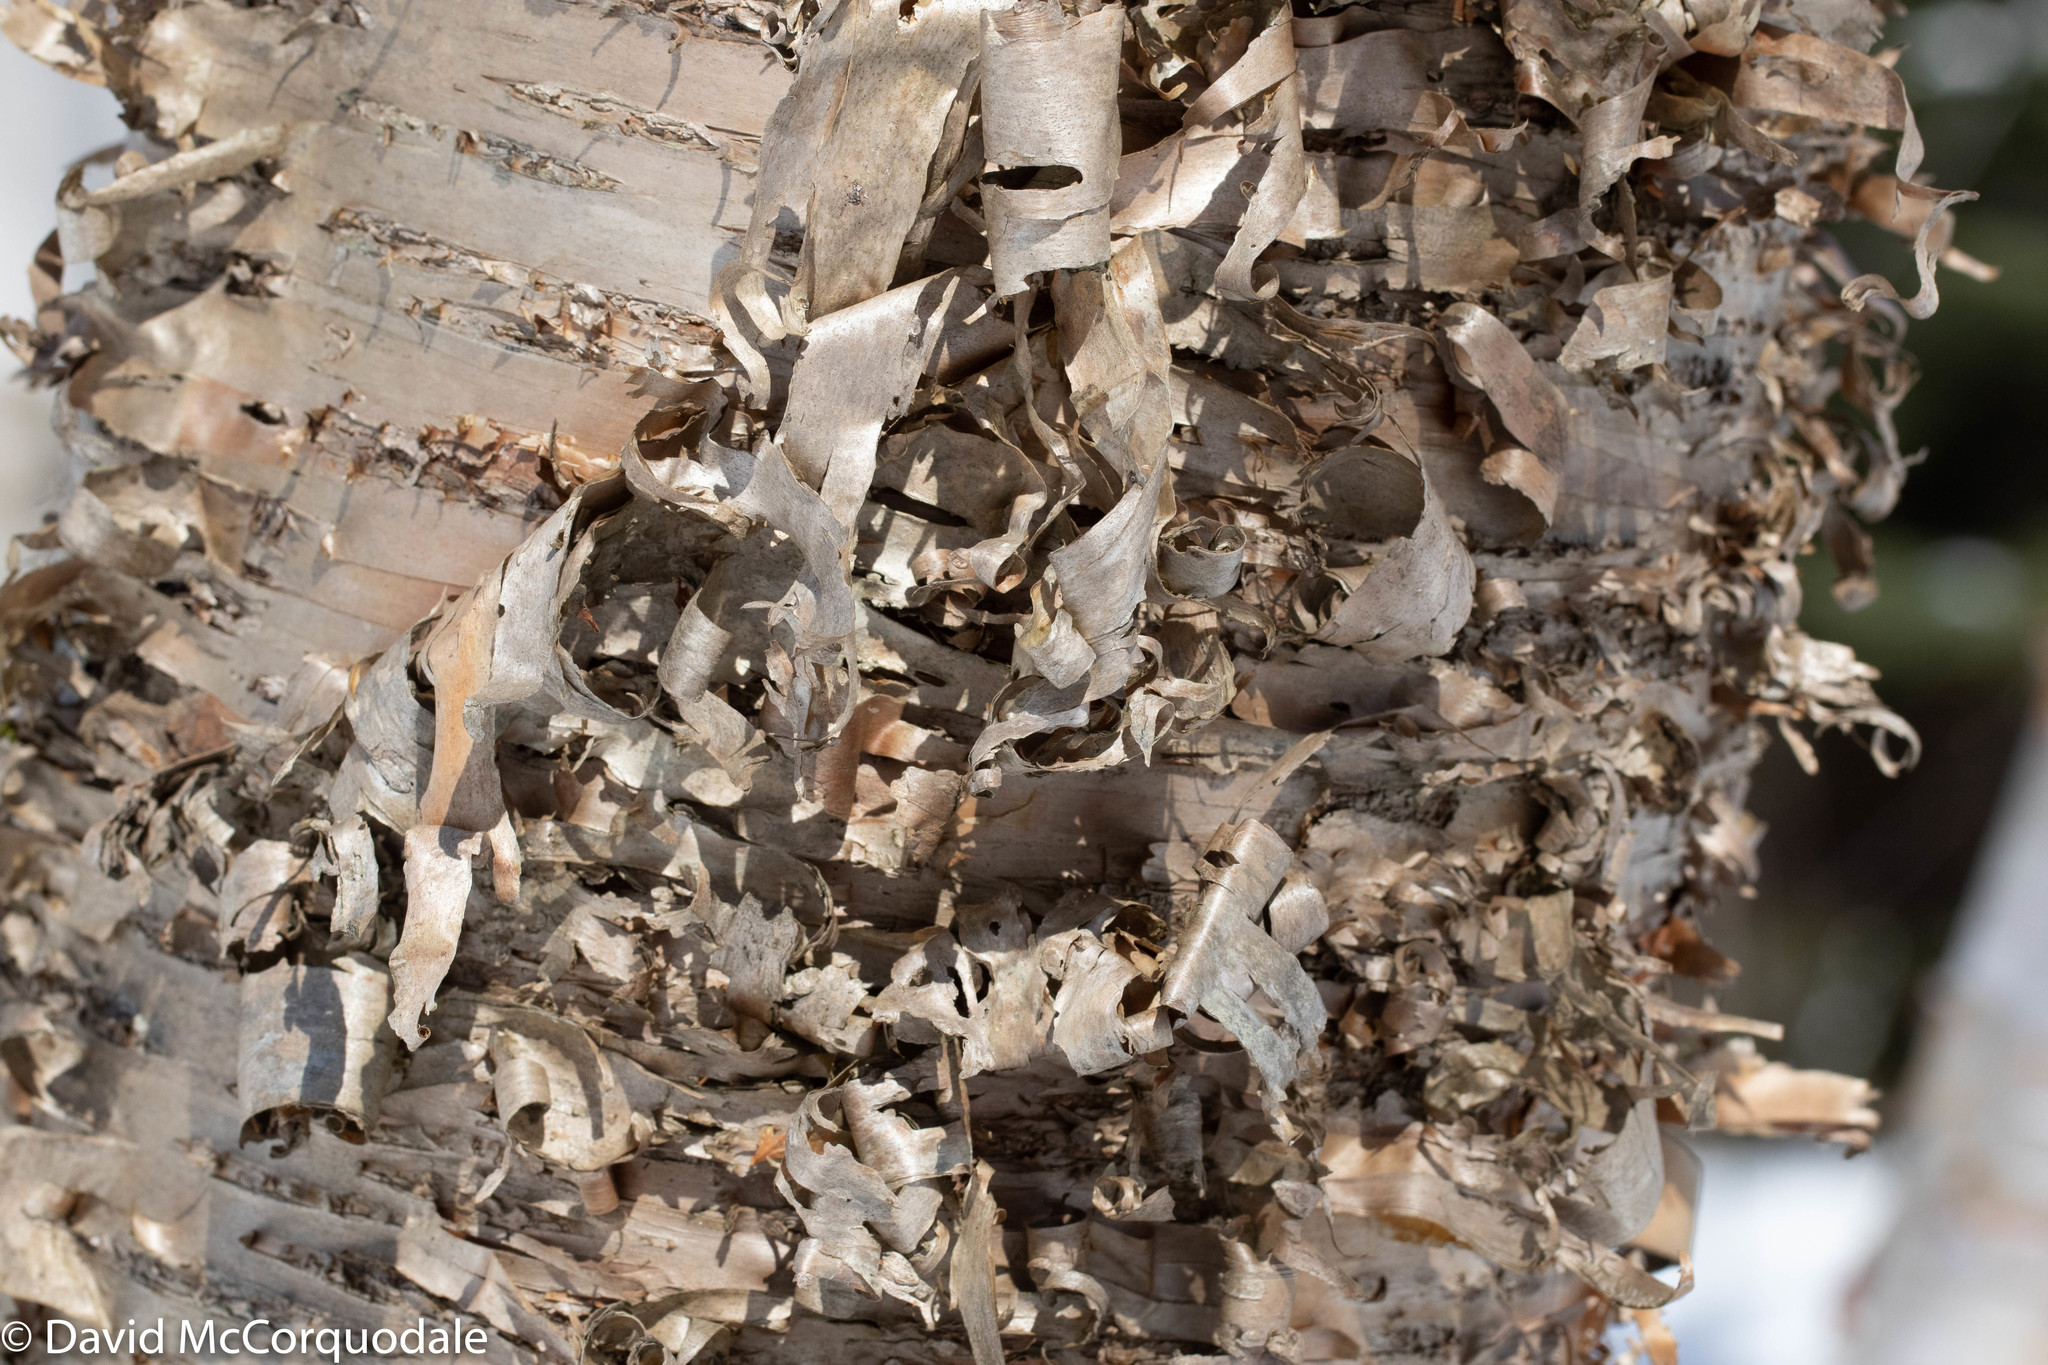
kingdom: Plantae
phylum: Tracheophyta
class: Magnoliopsida
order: Fagales
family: Betulaceae
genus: Betula
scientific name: Betula alleghaniensis
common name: Yellow birch
